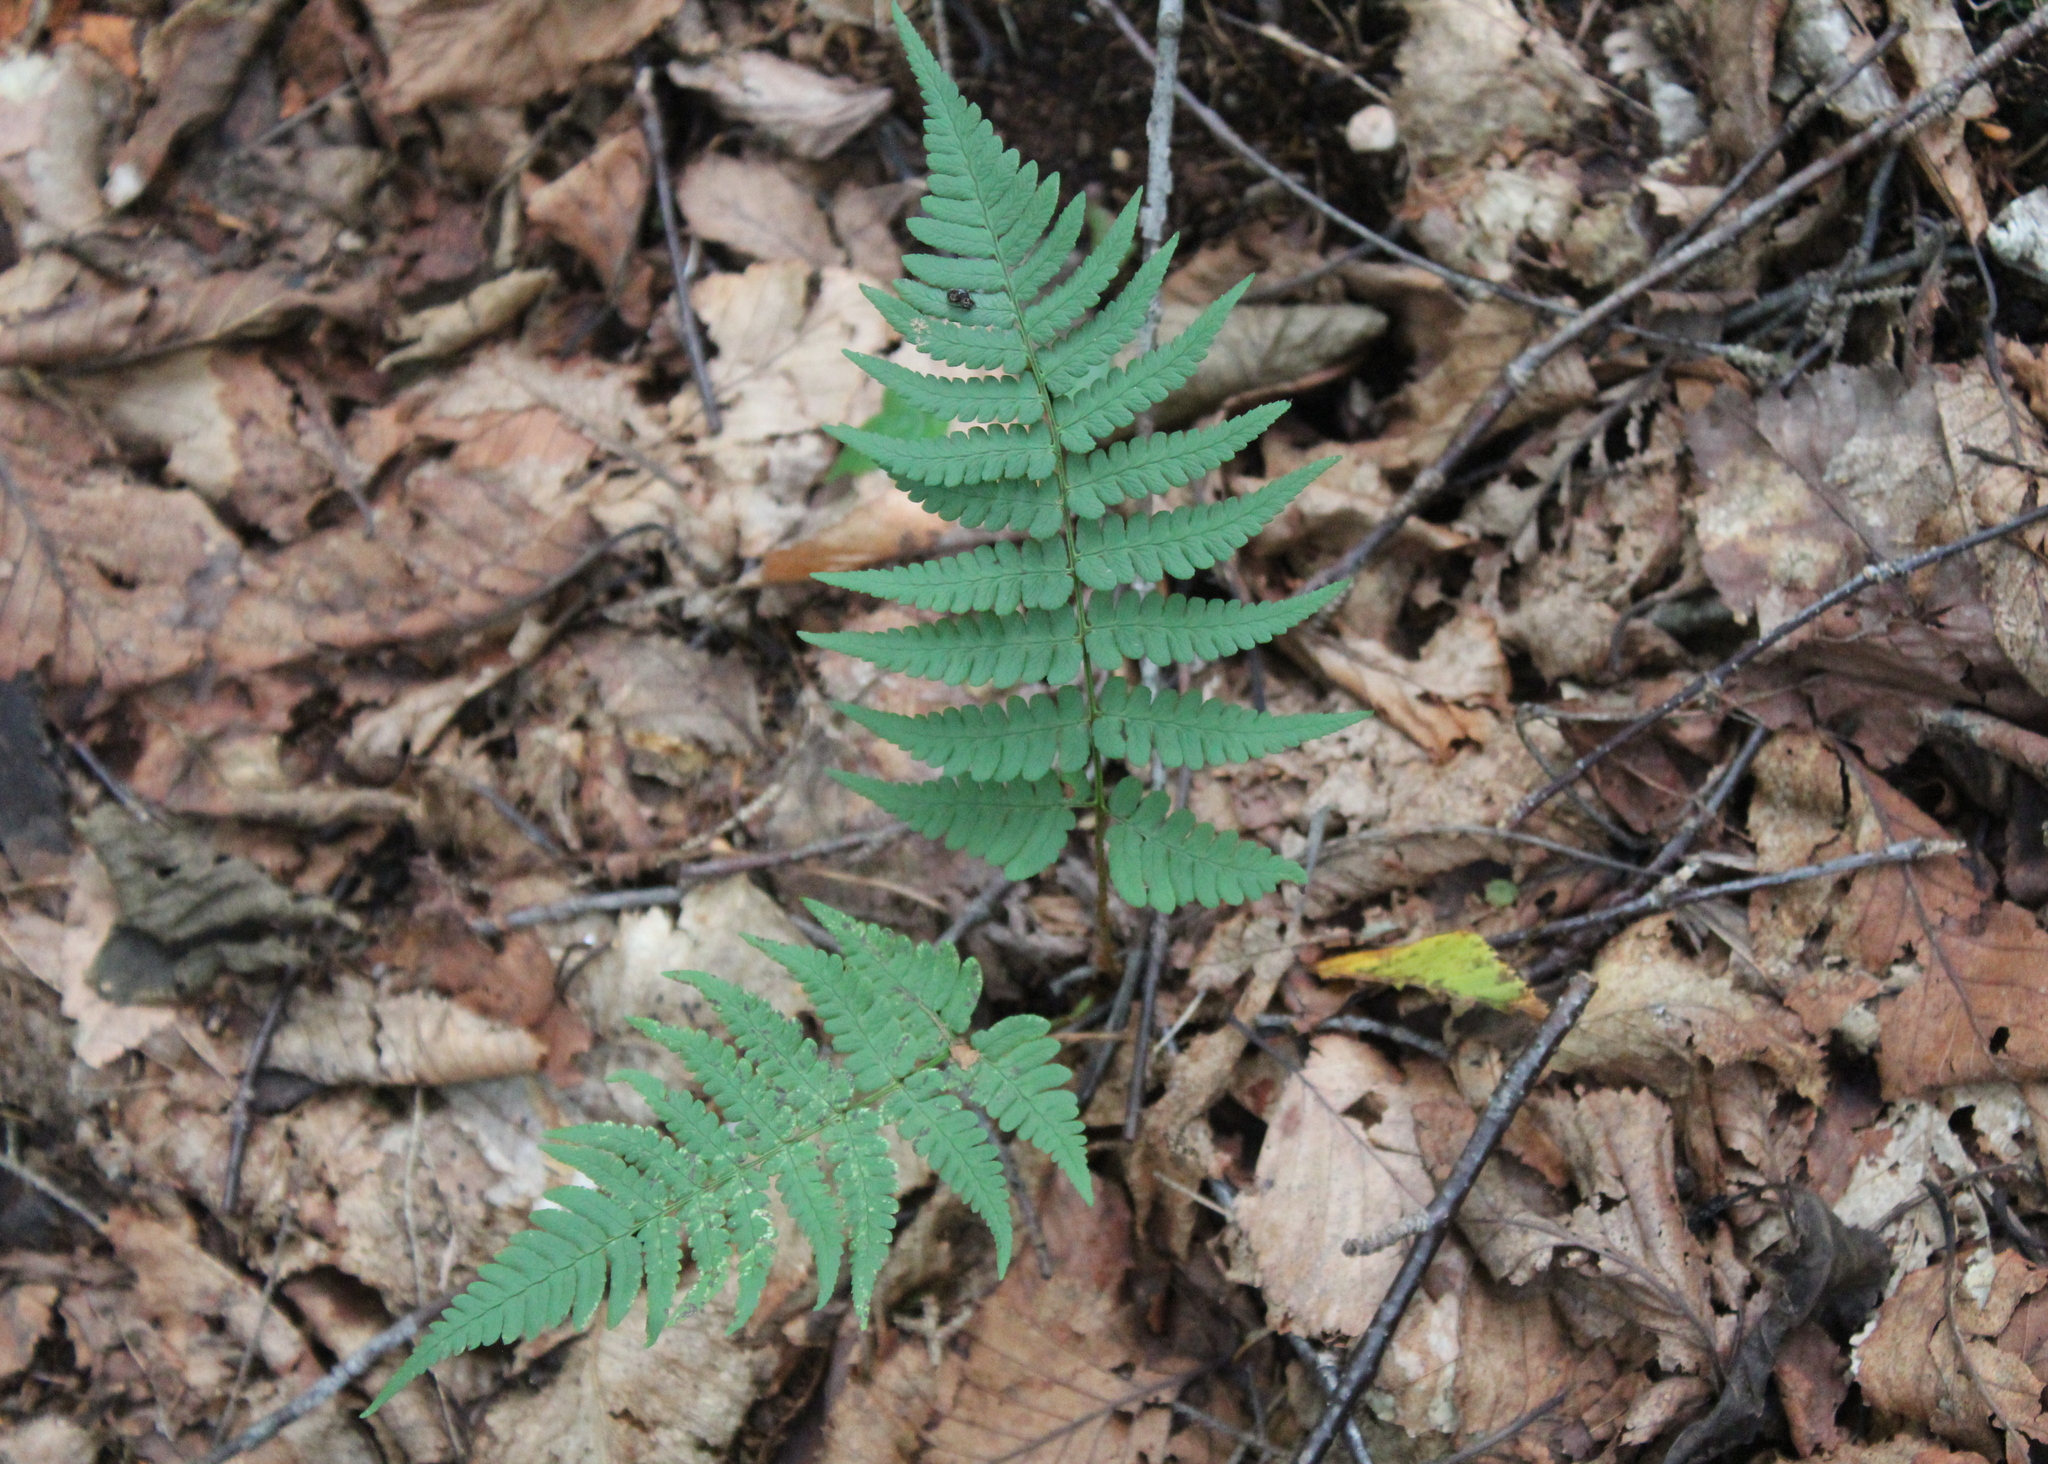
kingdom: Plantae
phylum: Tracheophyta
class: Polypodiopsida
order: Polypodiales
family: Dryopteridaceae
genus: Dryopteris
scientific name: Dryopteris marginalis
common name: Marginal wood fern
